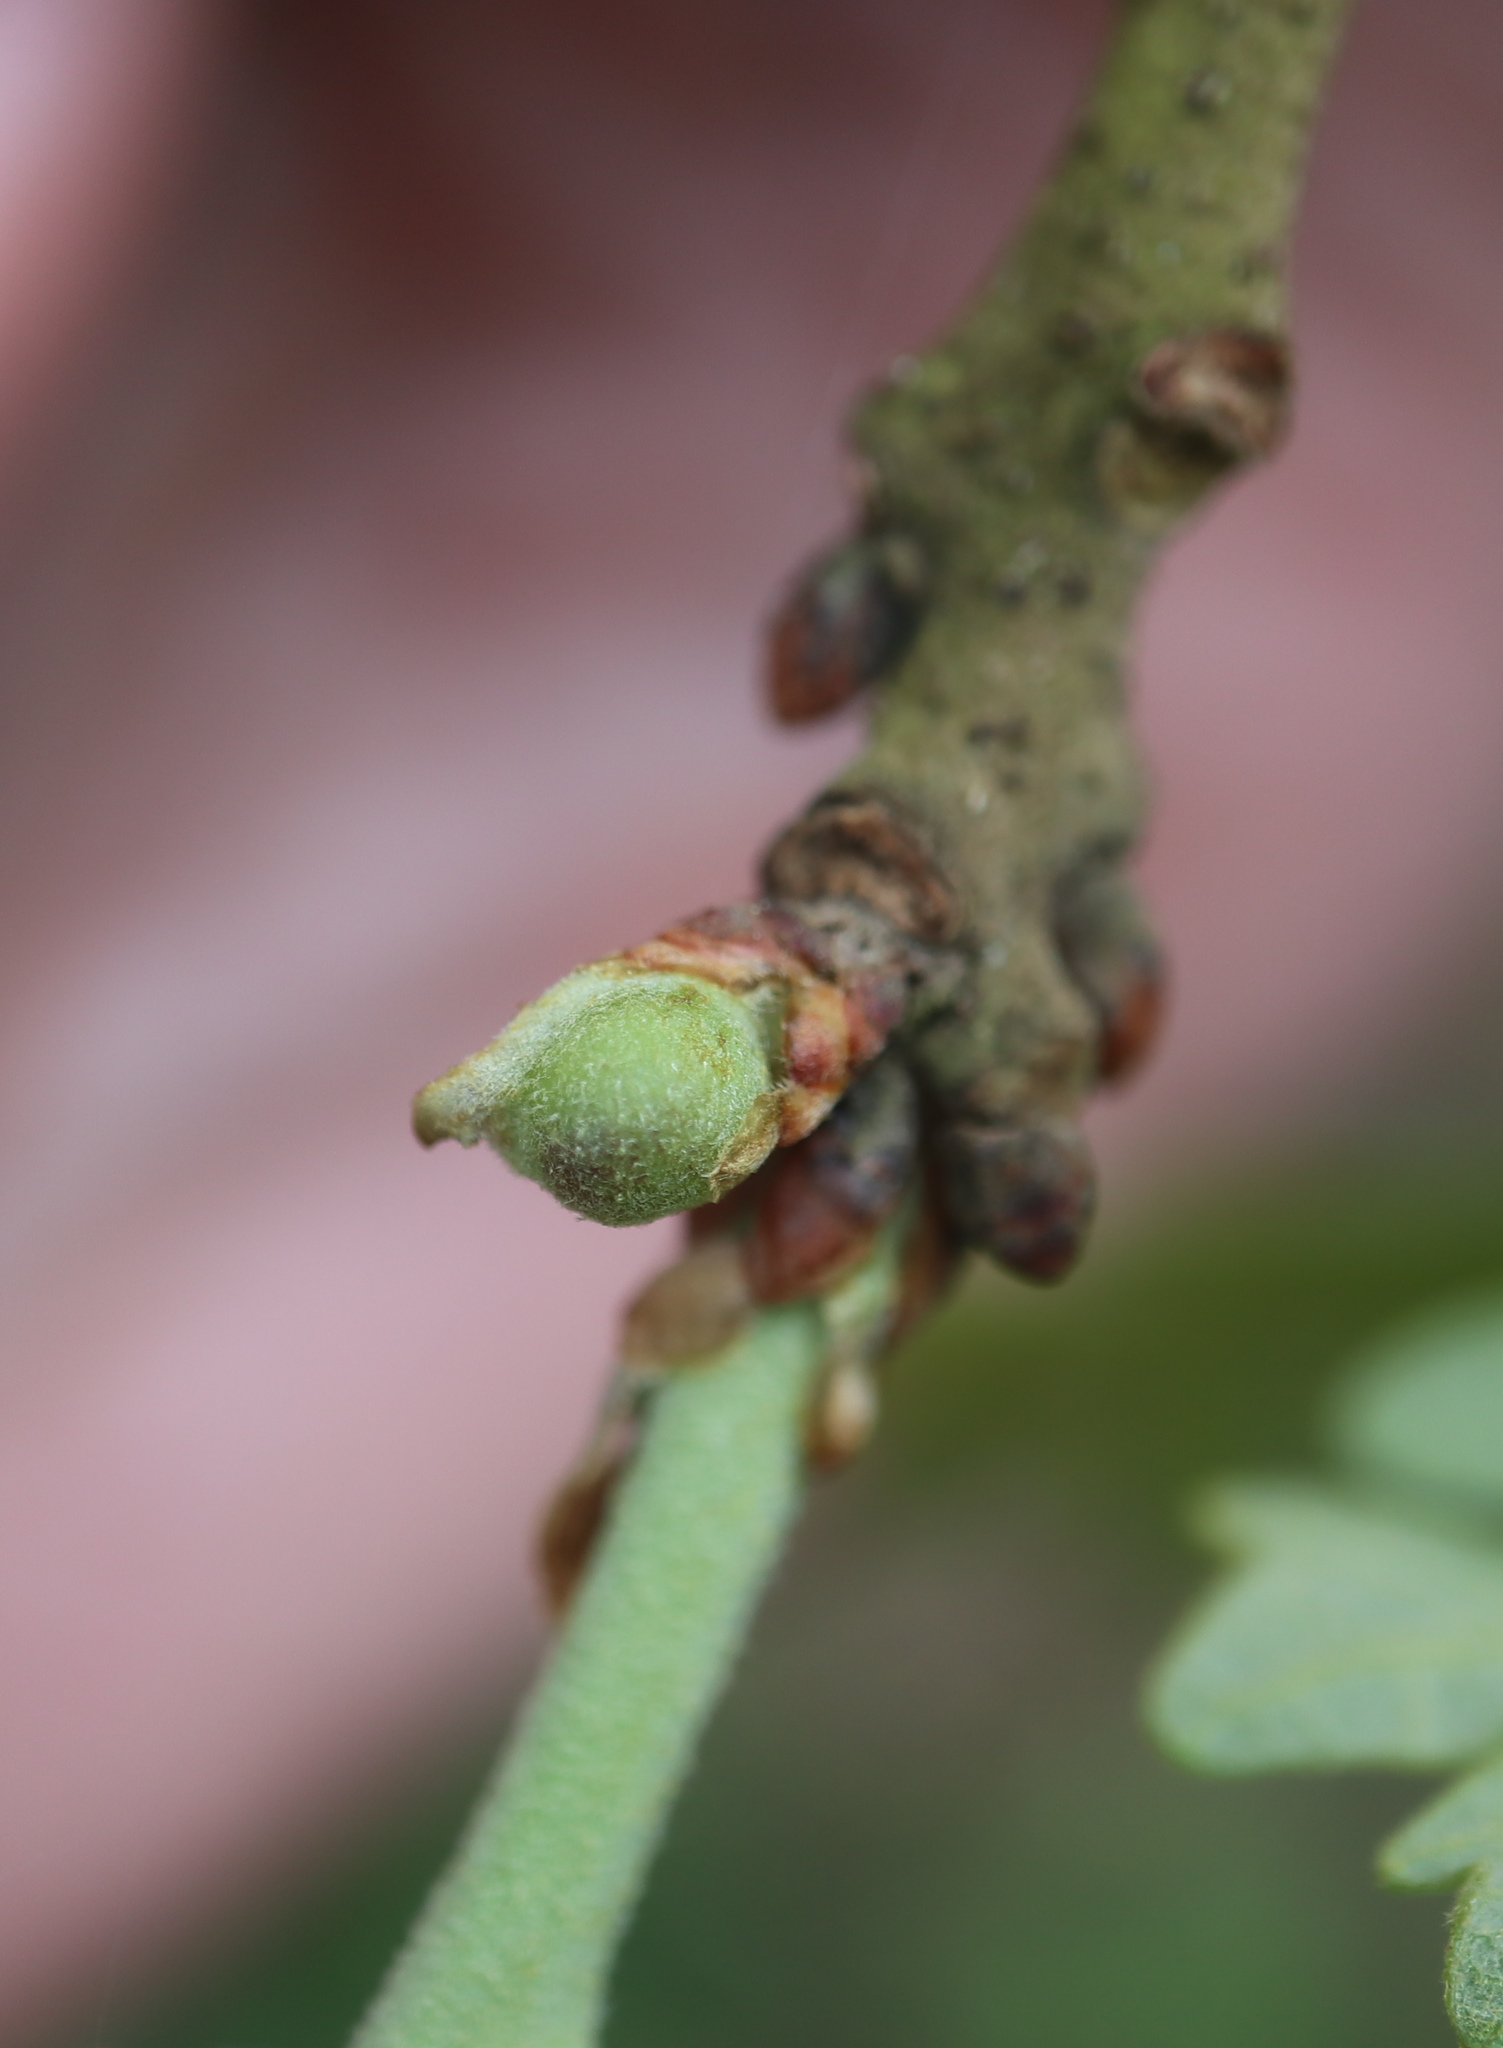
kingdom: Animalia
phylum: Arthropoda
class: Insecta
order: Hymenoptera
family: Cynipidae
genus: Andricus
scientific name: Andricus
